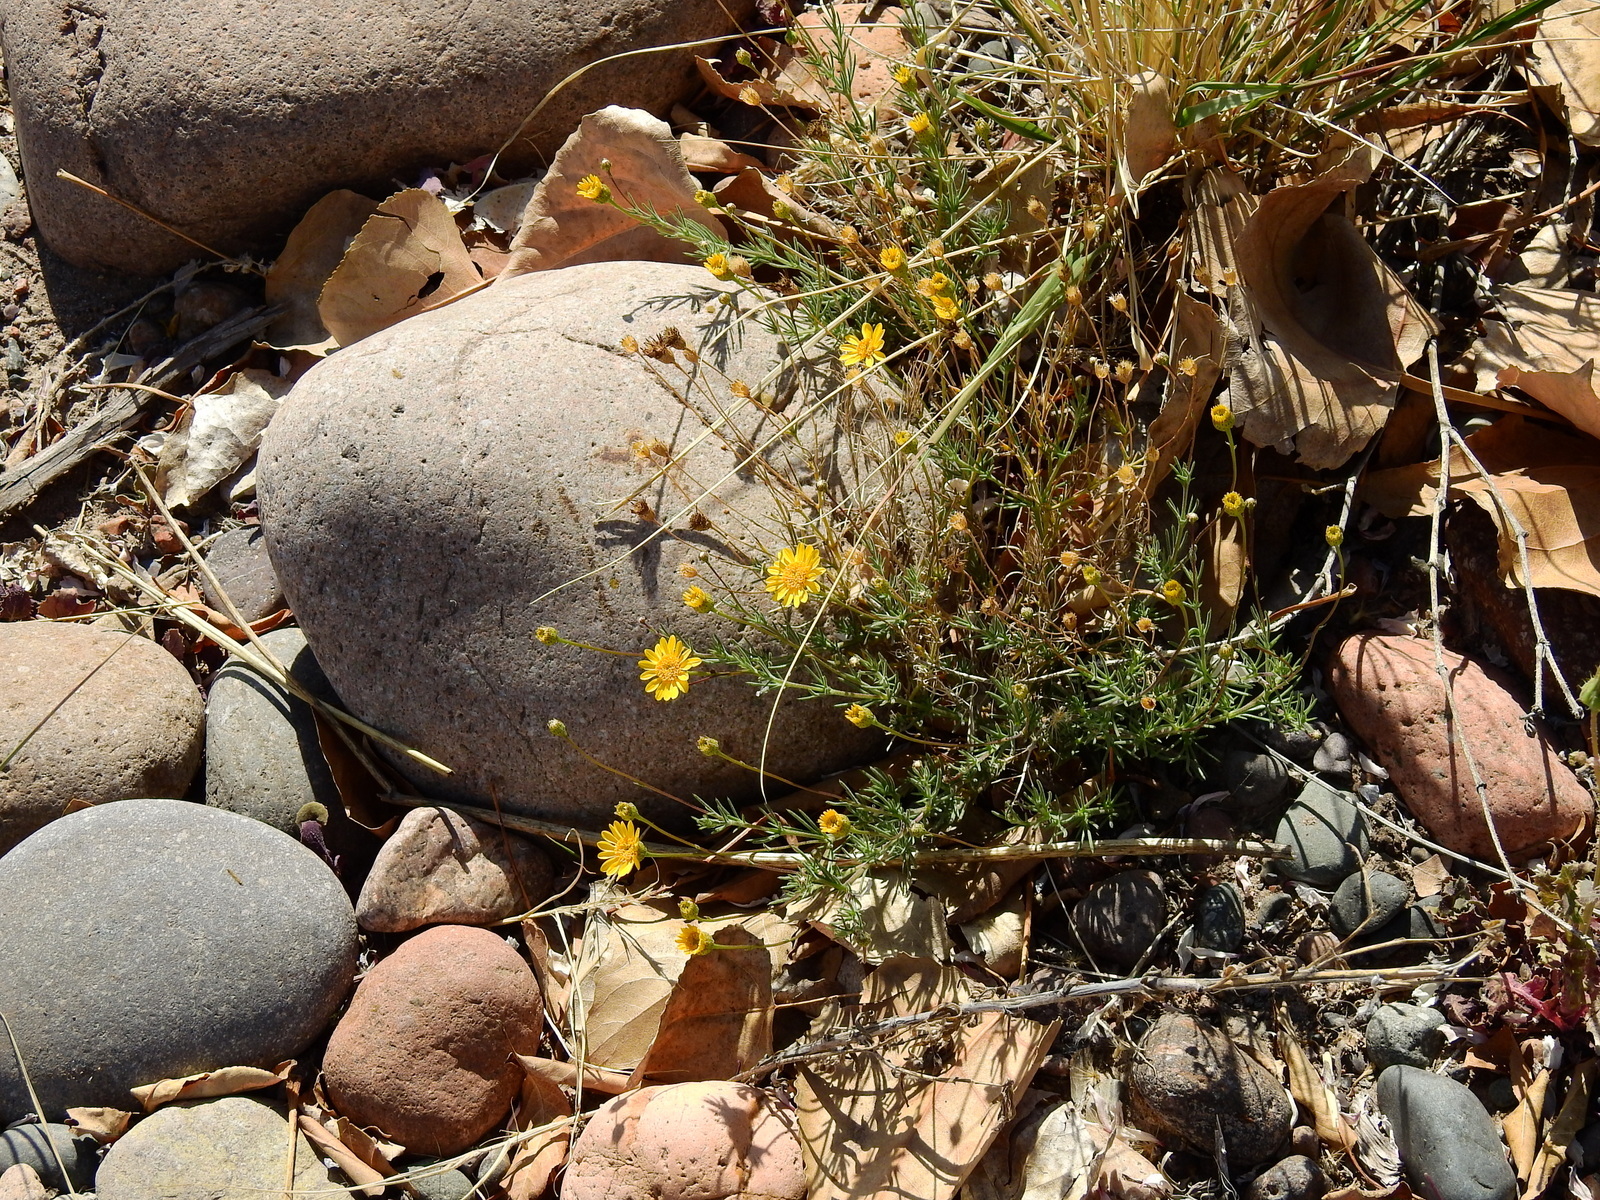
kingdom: Plantae
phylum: Tracheophyta
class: Magnoliopsida
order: Asterales
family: Asteraceae
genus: Thymophylla
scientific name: Thymophylla pentachaeta
